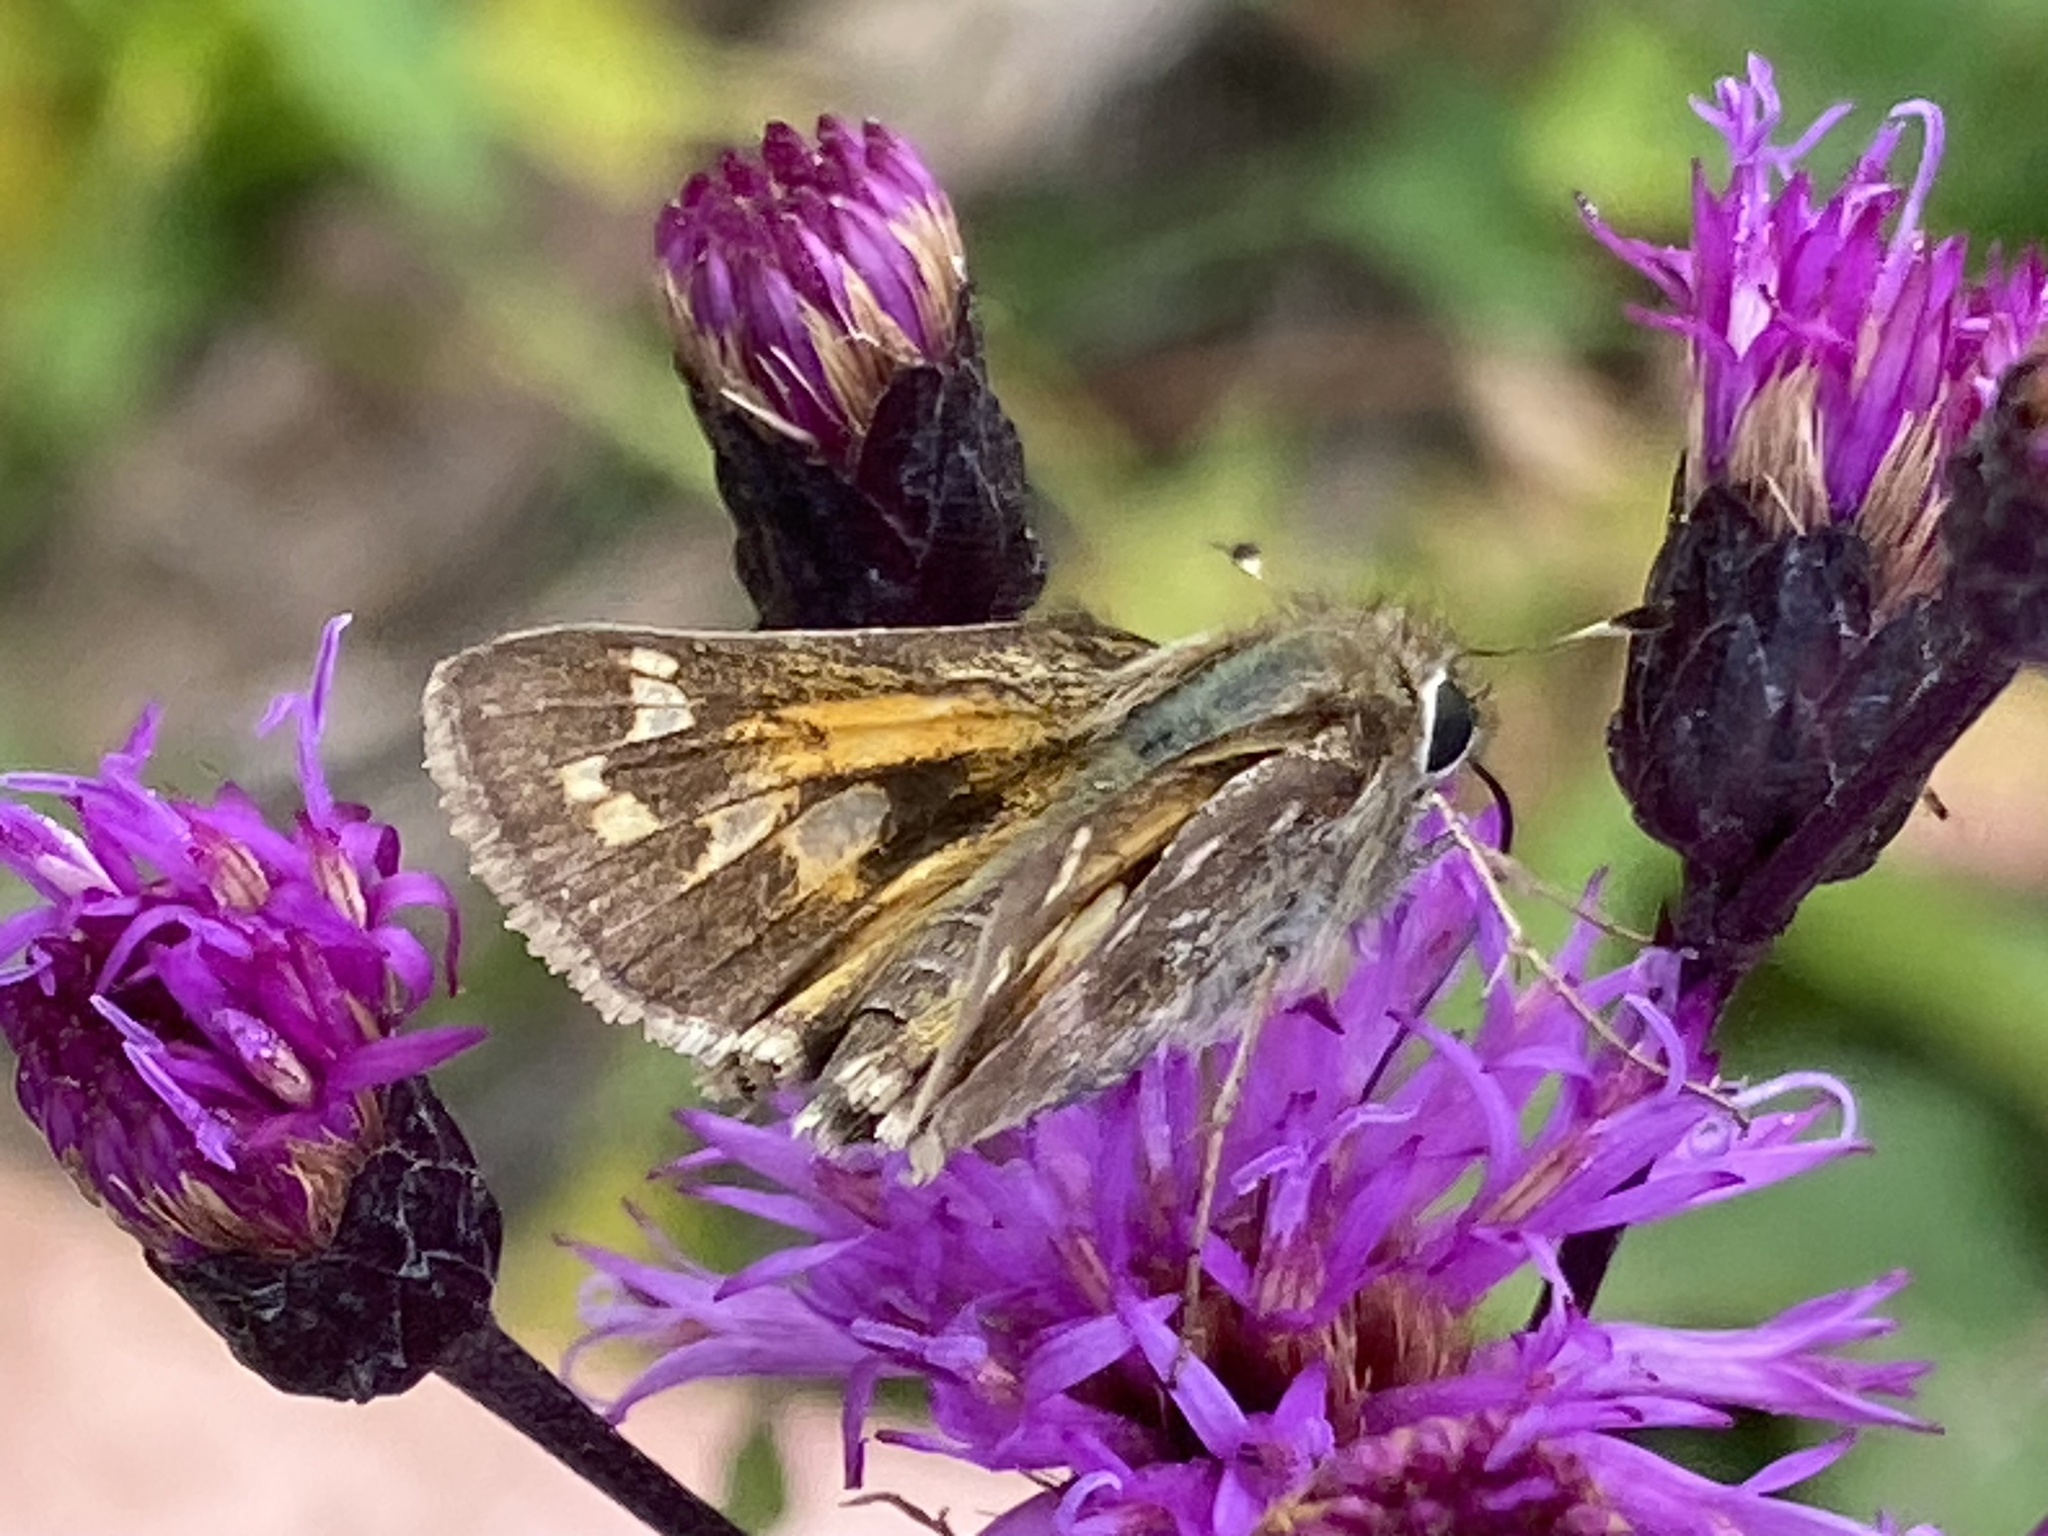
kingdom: Animalia
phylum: Arthropoda
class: Insecta
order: Lepidoptera
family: Hesperiidae
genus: Atalopedes
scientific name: Atalopedes
